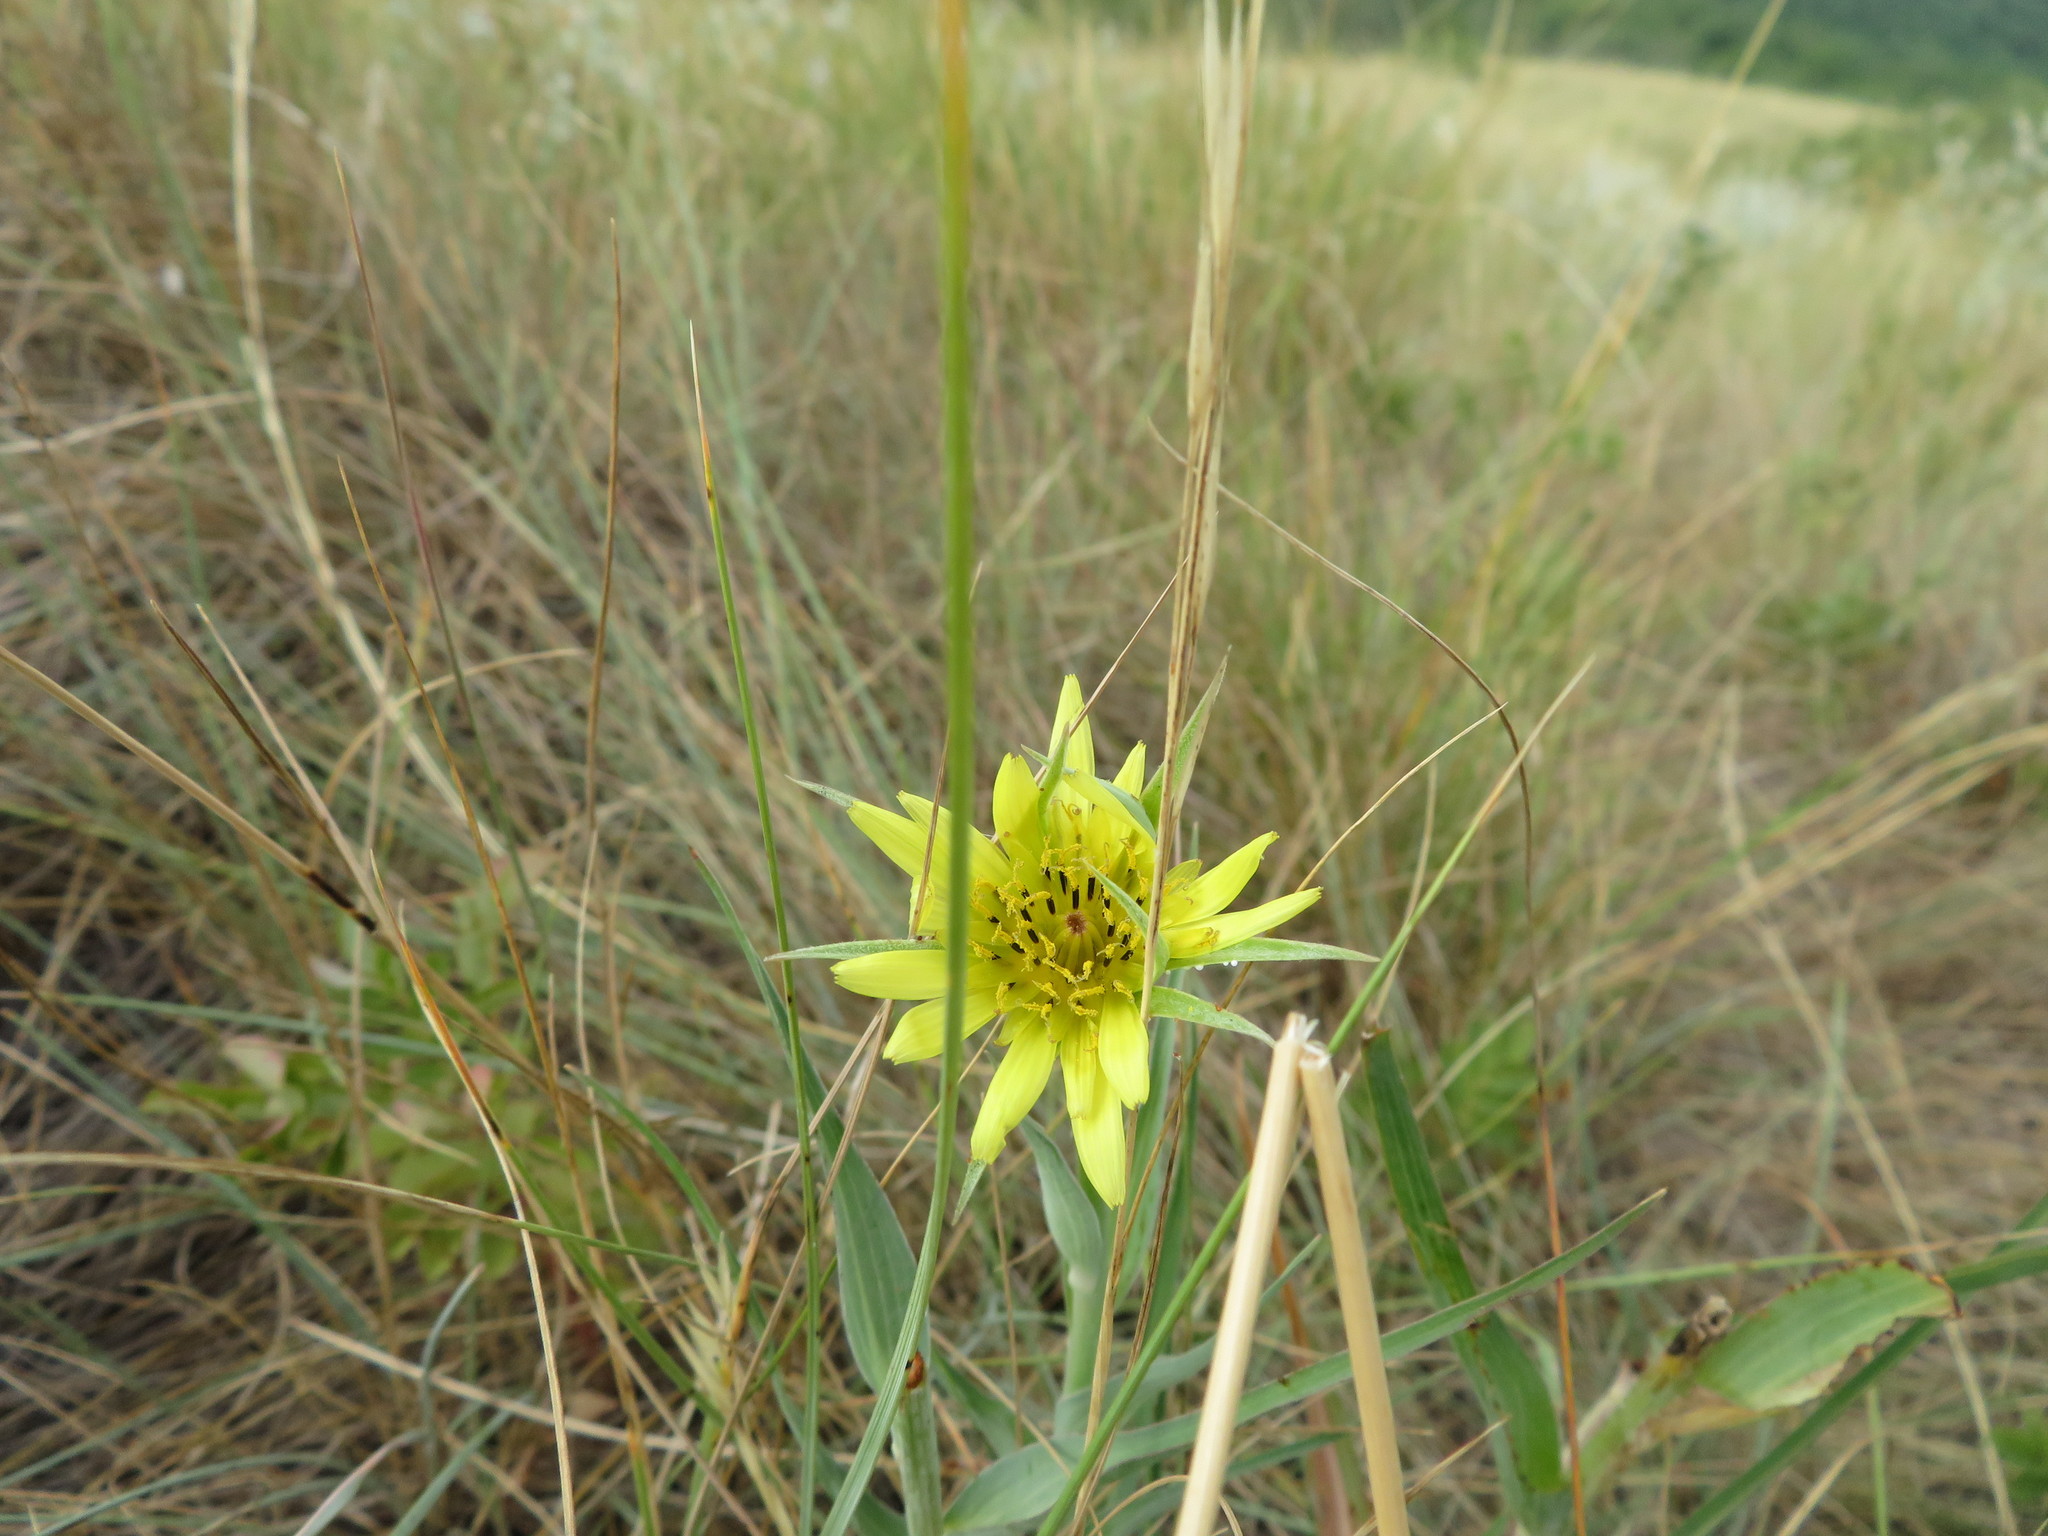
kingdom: Plantae
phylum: Tracheophyta
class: Magnoliopsida
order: Asterales
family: Asteraceae
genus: Tragopogon
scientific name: Tragopogon dubius
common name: Yellow salsify
